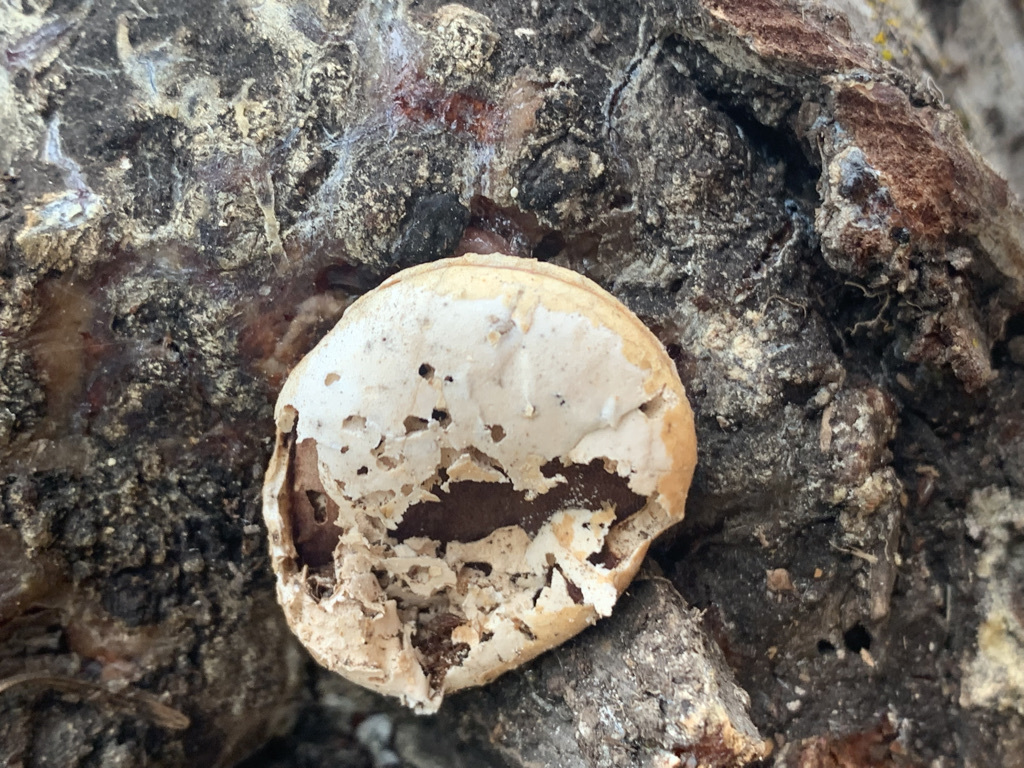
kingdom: Fungi
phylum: Basidiomycota
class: Agaricomycetes
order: Polyporales
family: Polyporaceae
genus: Cryptoporus
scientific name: Cryptoporus volvatus
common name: Veiled polypore
